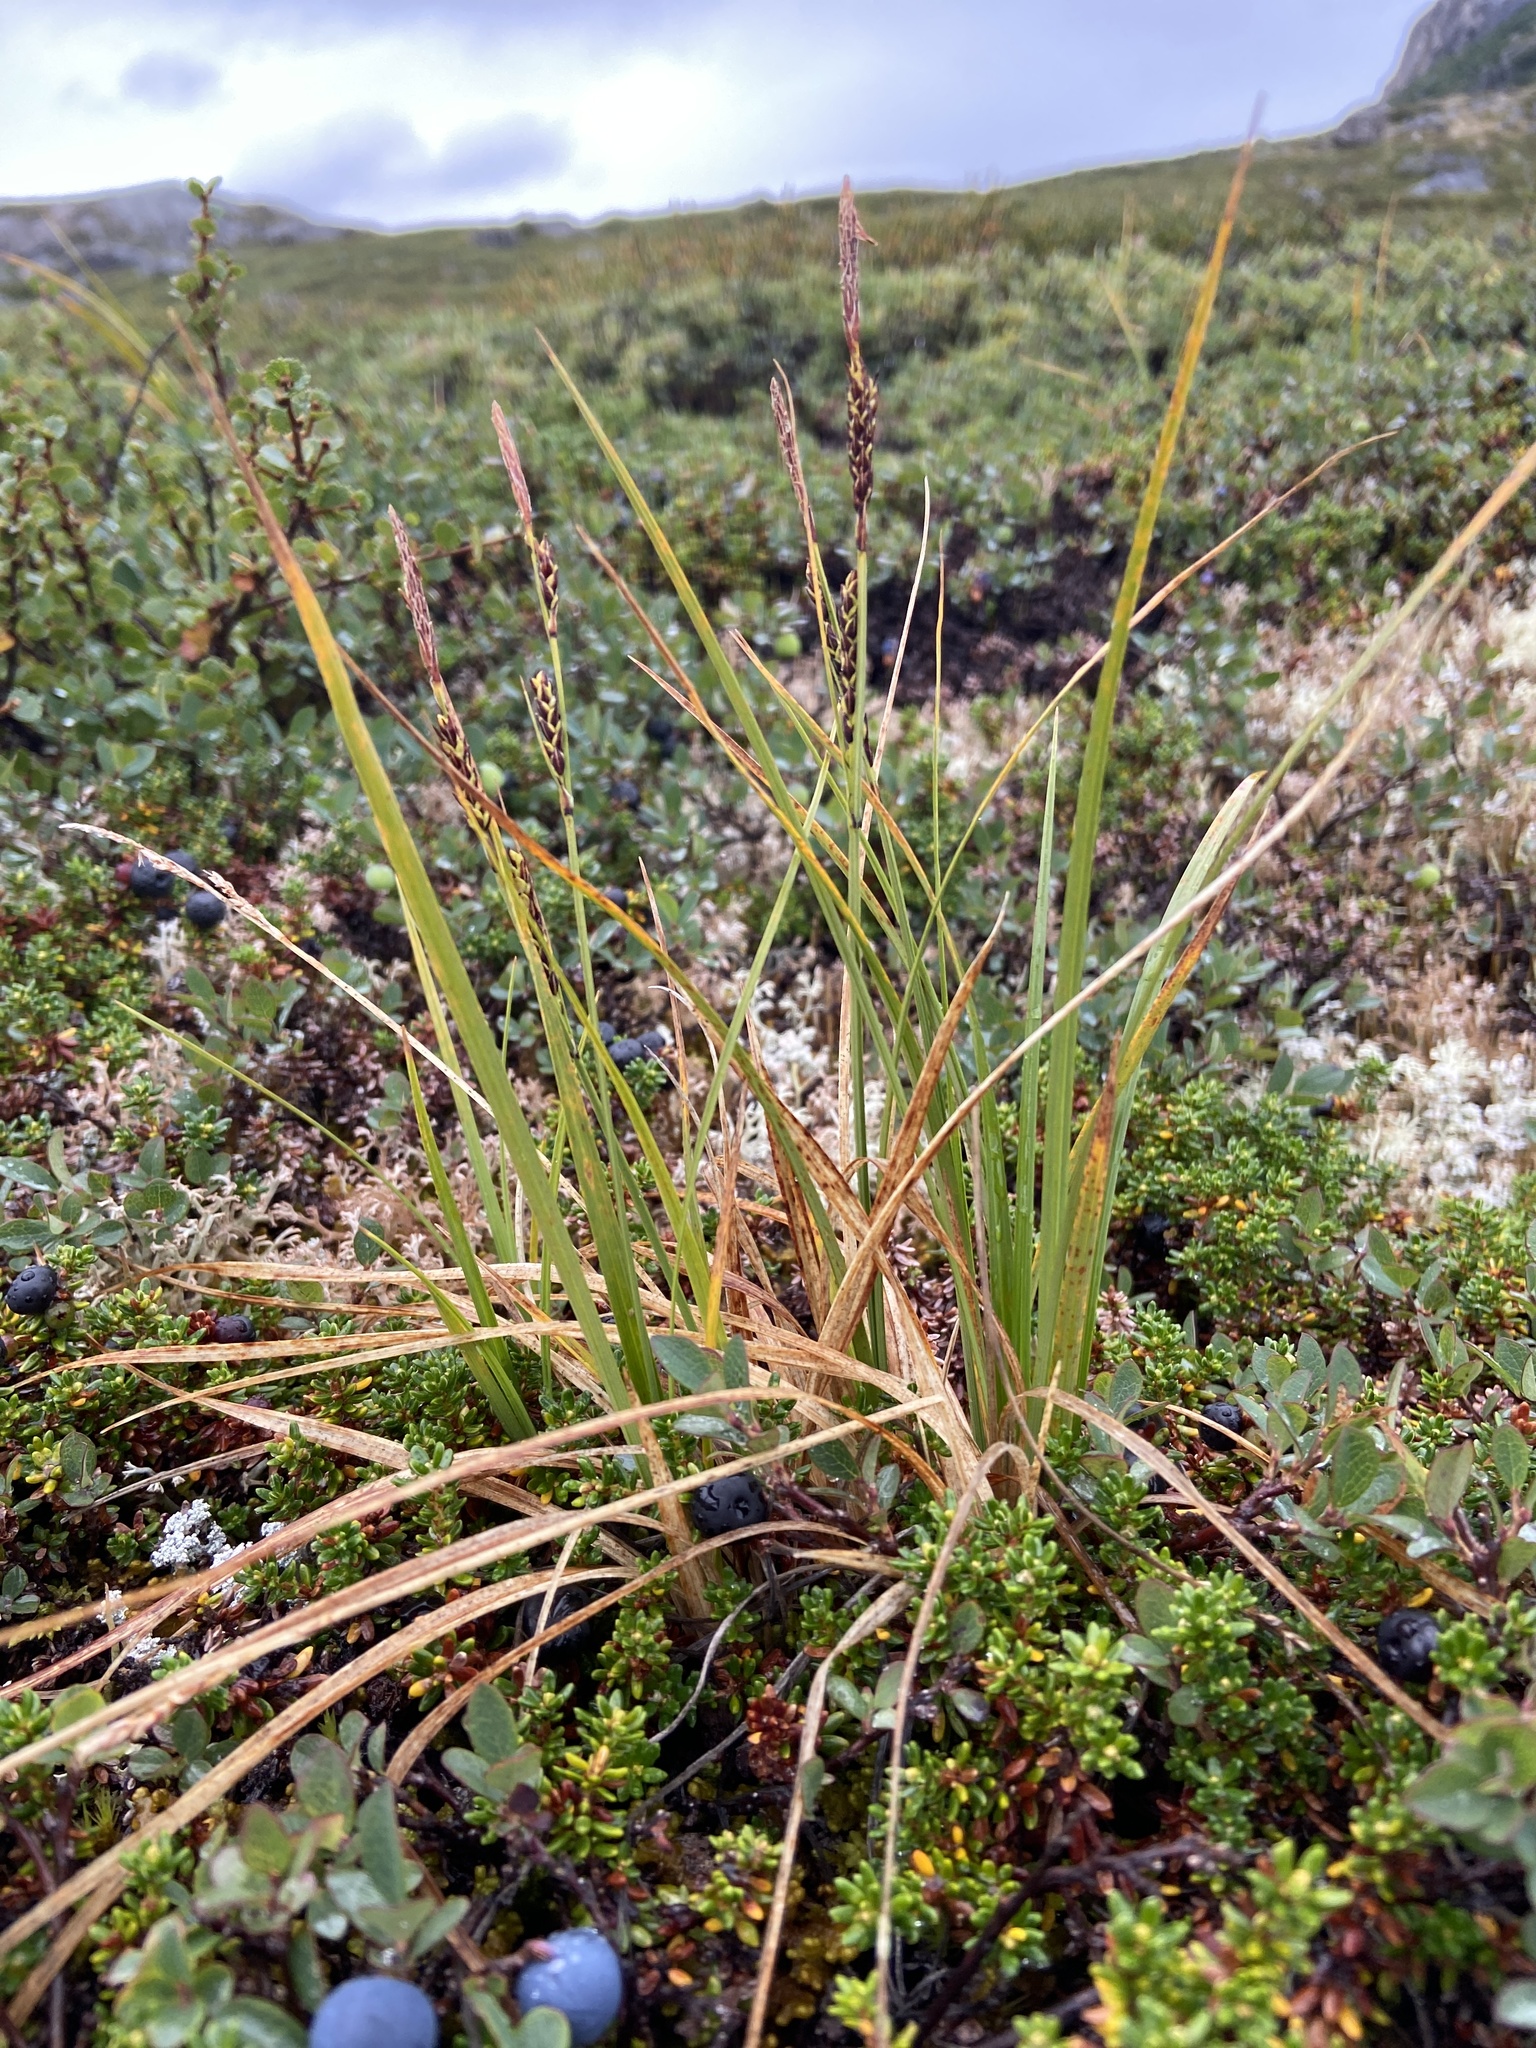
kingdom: Plantae
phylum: Tracheophyta
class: Liliopsida
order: Poales
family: Cyperaceae
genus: Carex
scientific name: Carex bigelowii
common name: Stiff sedge
